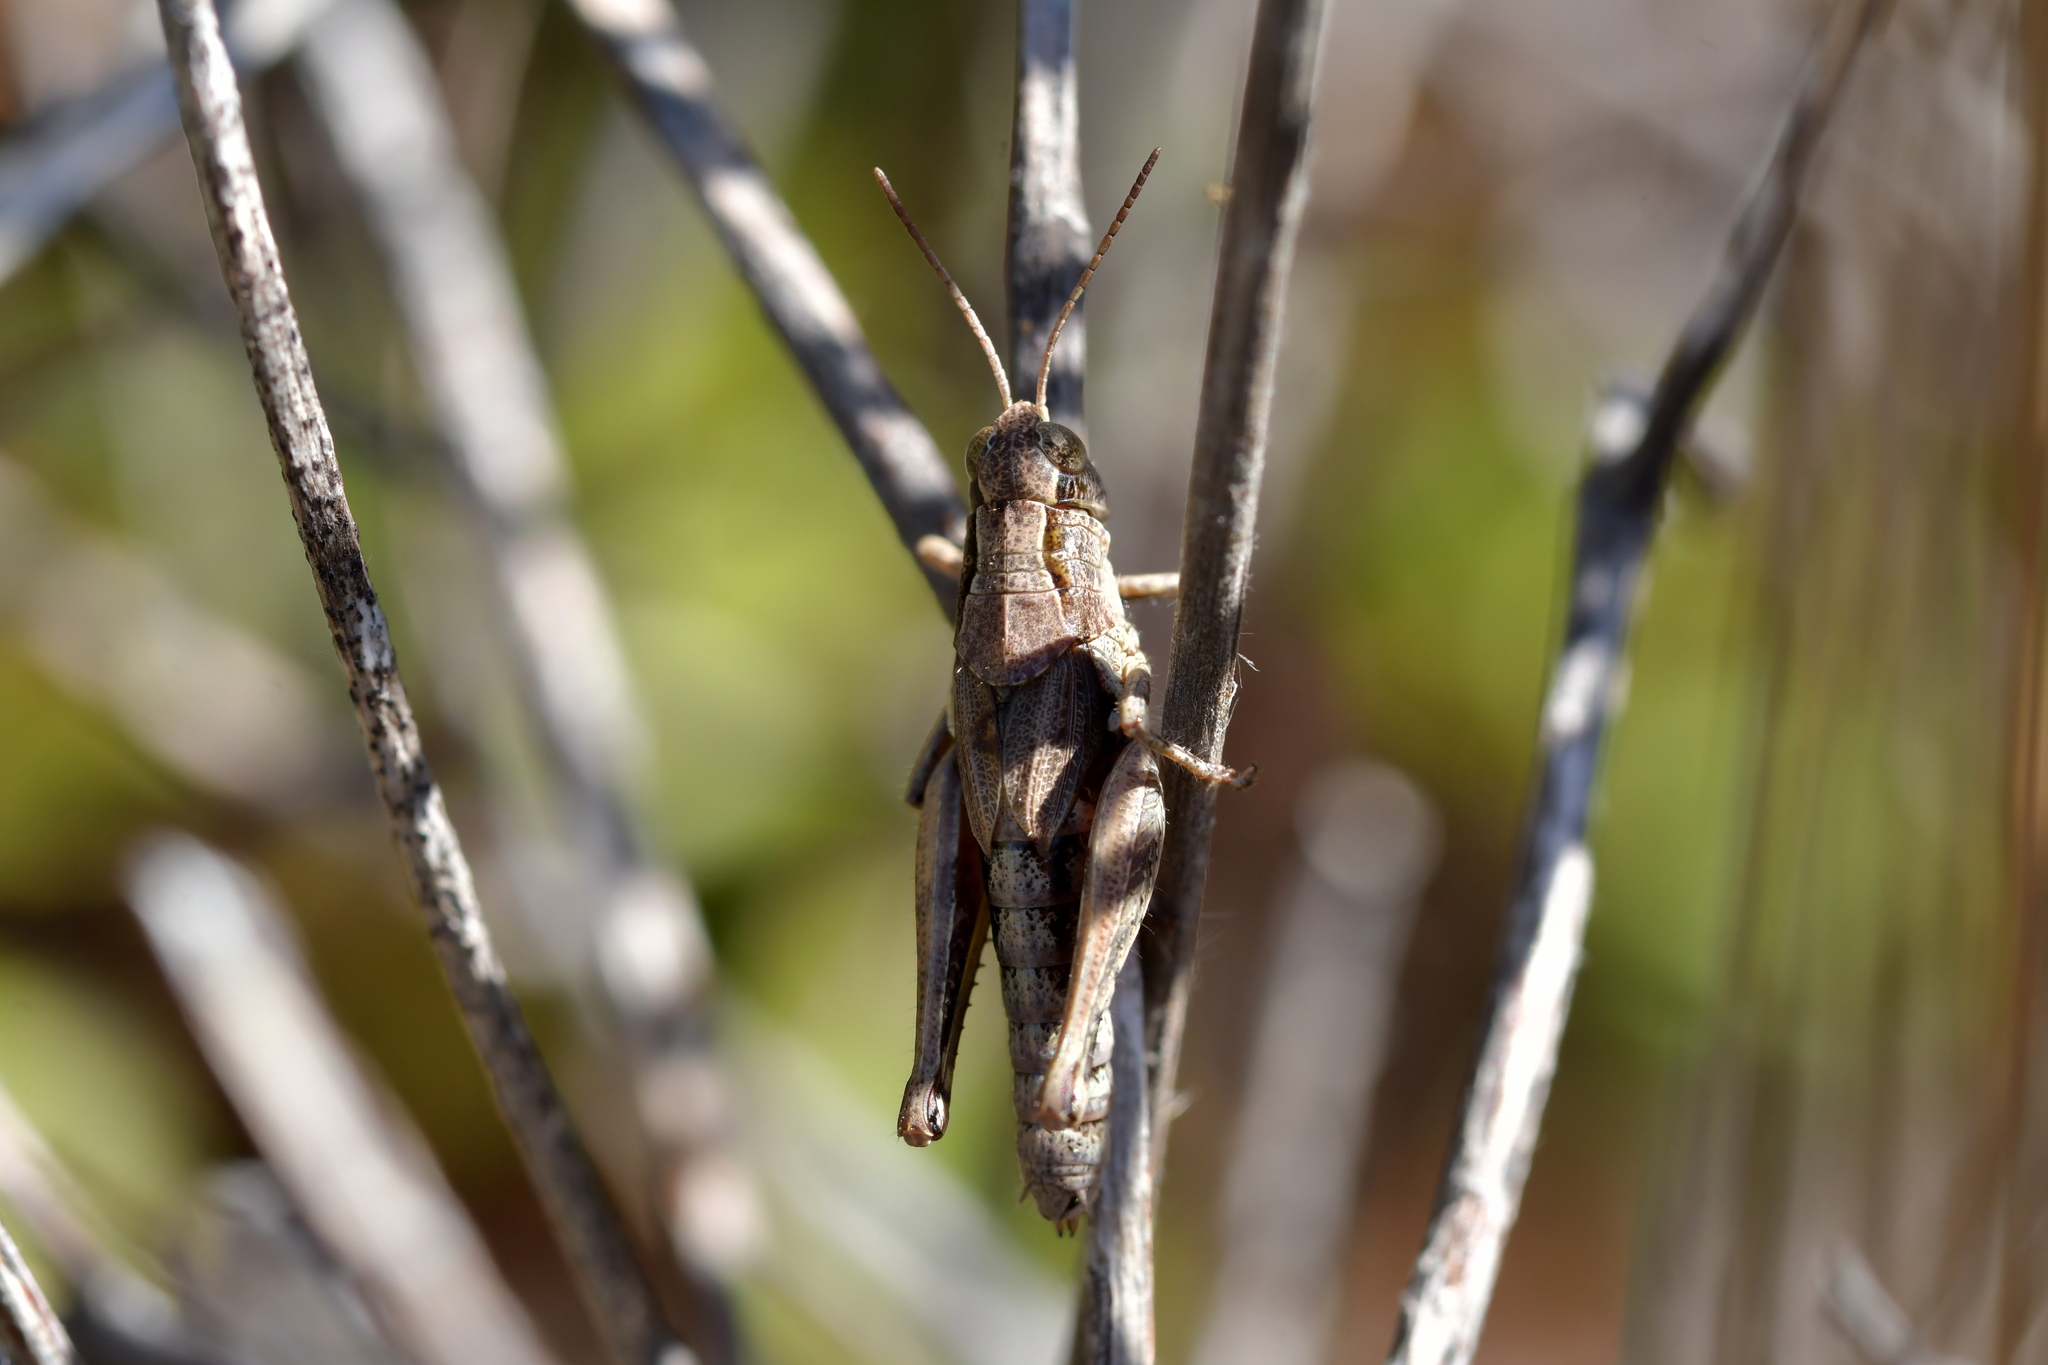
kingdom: Animalia
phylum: Arthropoda
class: Insecta
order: Orthoptera
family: Acrididae
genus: Phaulacridium
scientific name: Phaulacridium marginale
